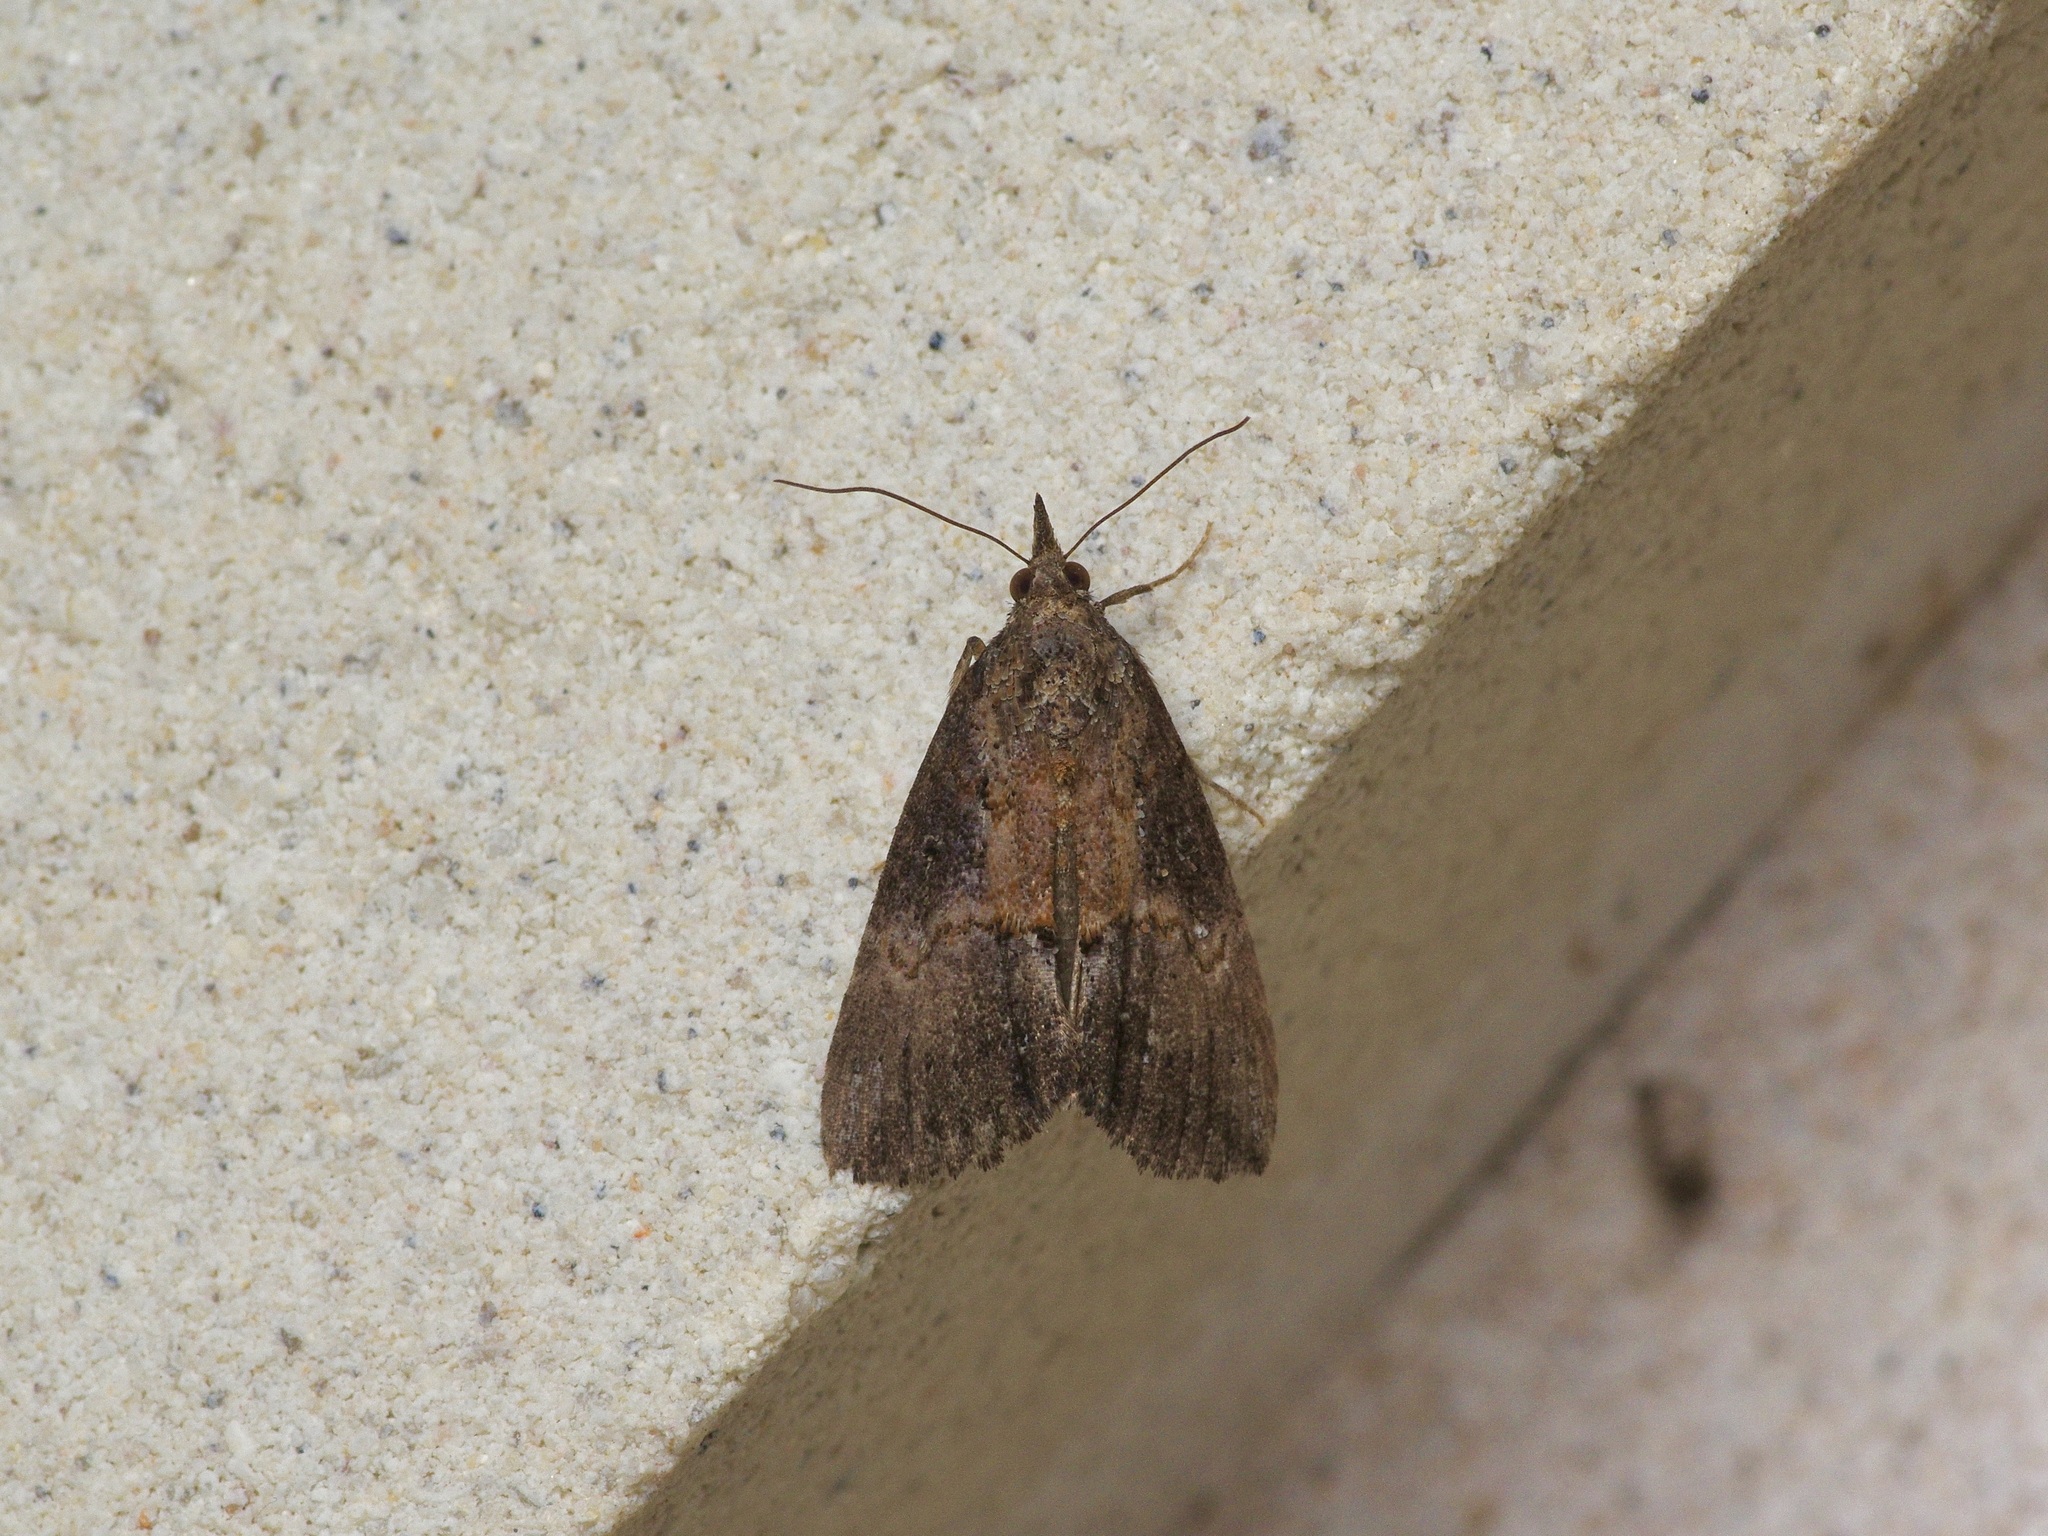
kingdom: Animalia
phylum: Arthropoda
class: Insecta
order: Lepidoptera
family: Erebidae
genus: Hypena
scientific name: Hypena scabra
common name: Green cloverworm
